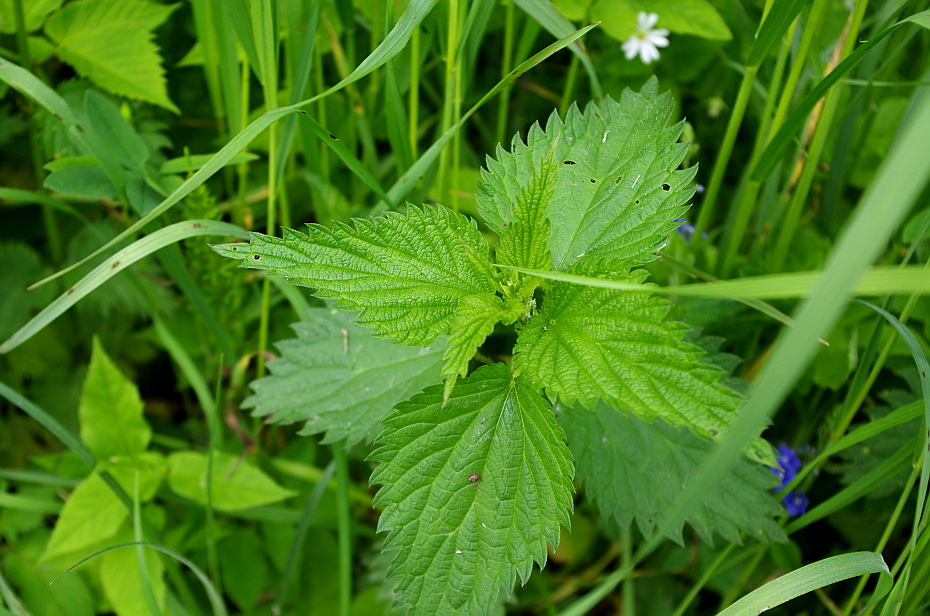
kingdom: Plantae
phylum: Tracheophyta
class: Magnoliopsida
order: Rosales
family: Urticaceae
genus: Urtica
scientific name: Urtica dioica
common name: Common nettle
